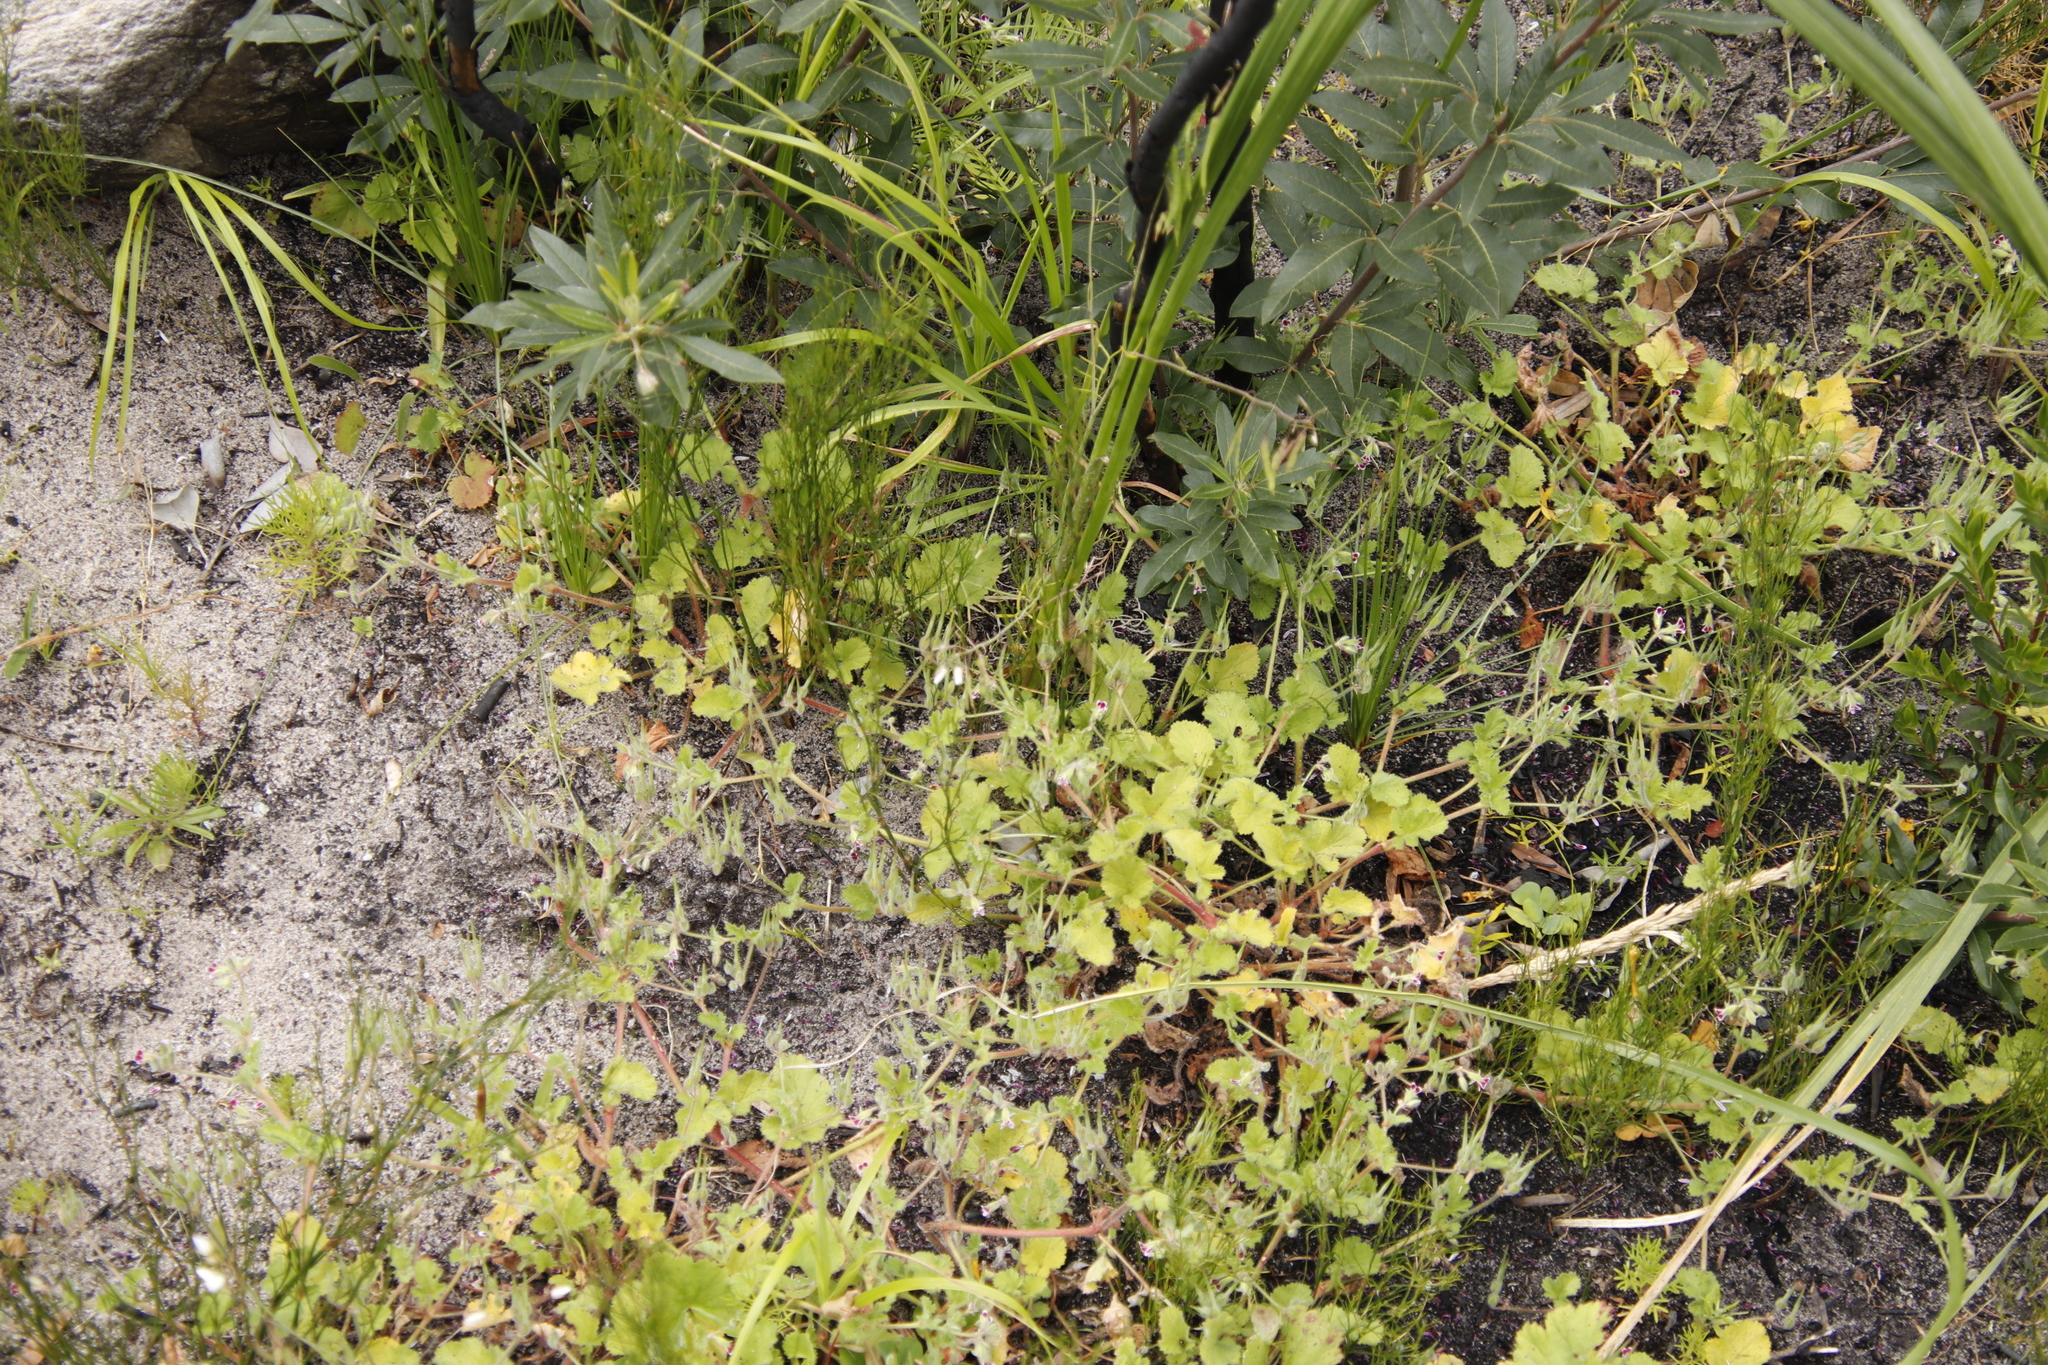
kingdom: Plantae
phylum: Tracheophyta
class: Magnoliopsida
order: Geraniales
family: Geraniaceae
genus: Pelargonium
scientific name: Pelargonium althaeoides
